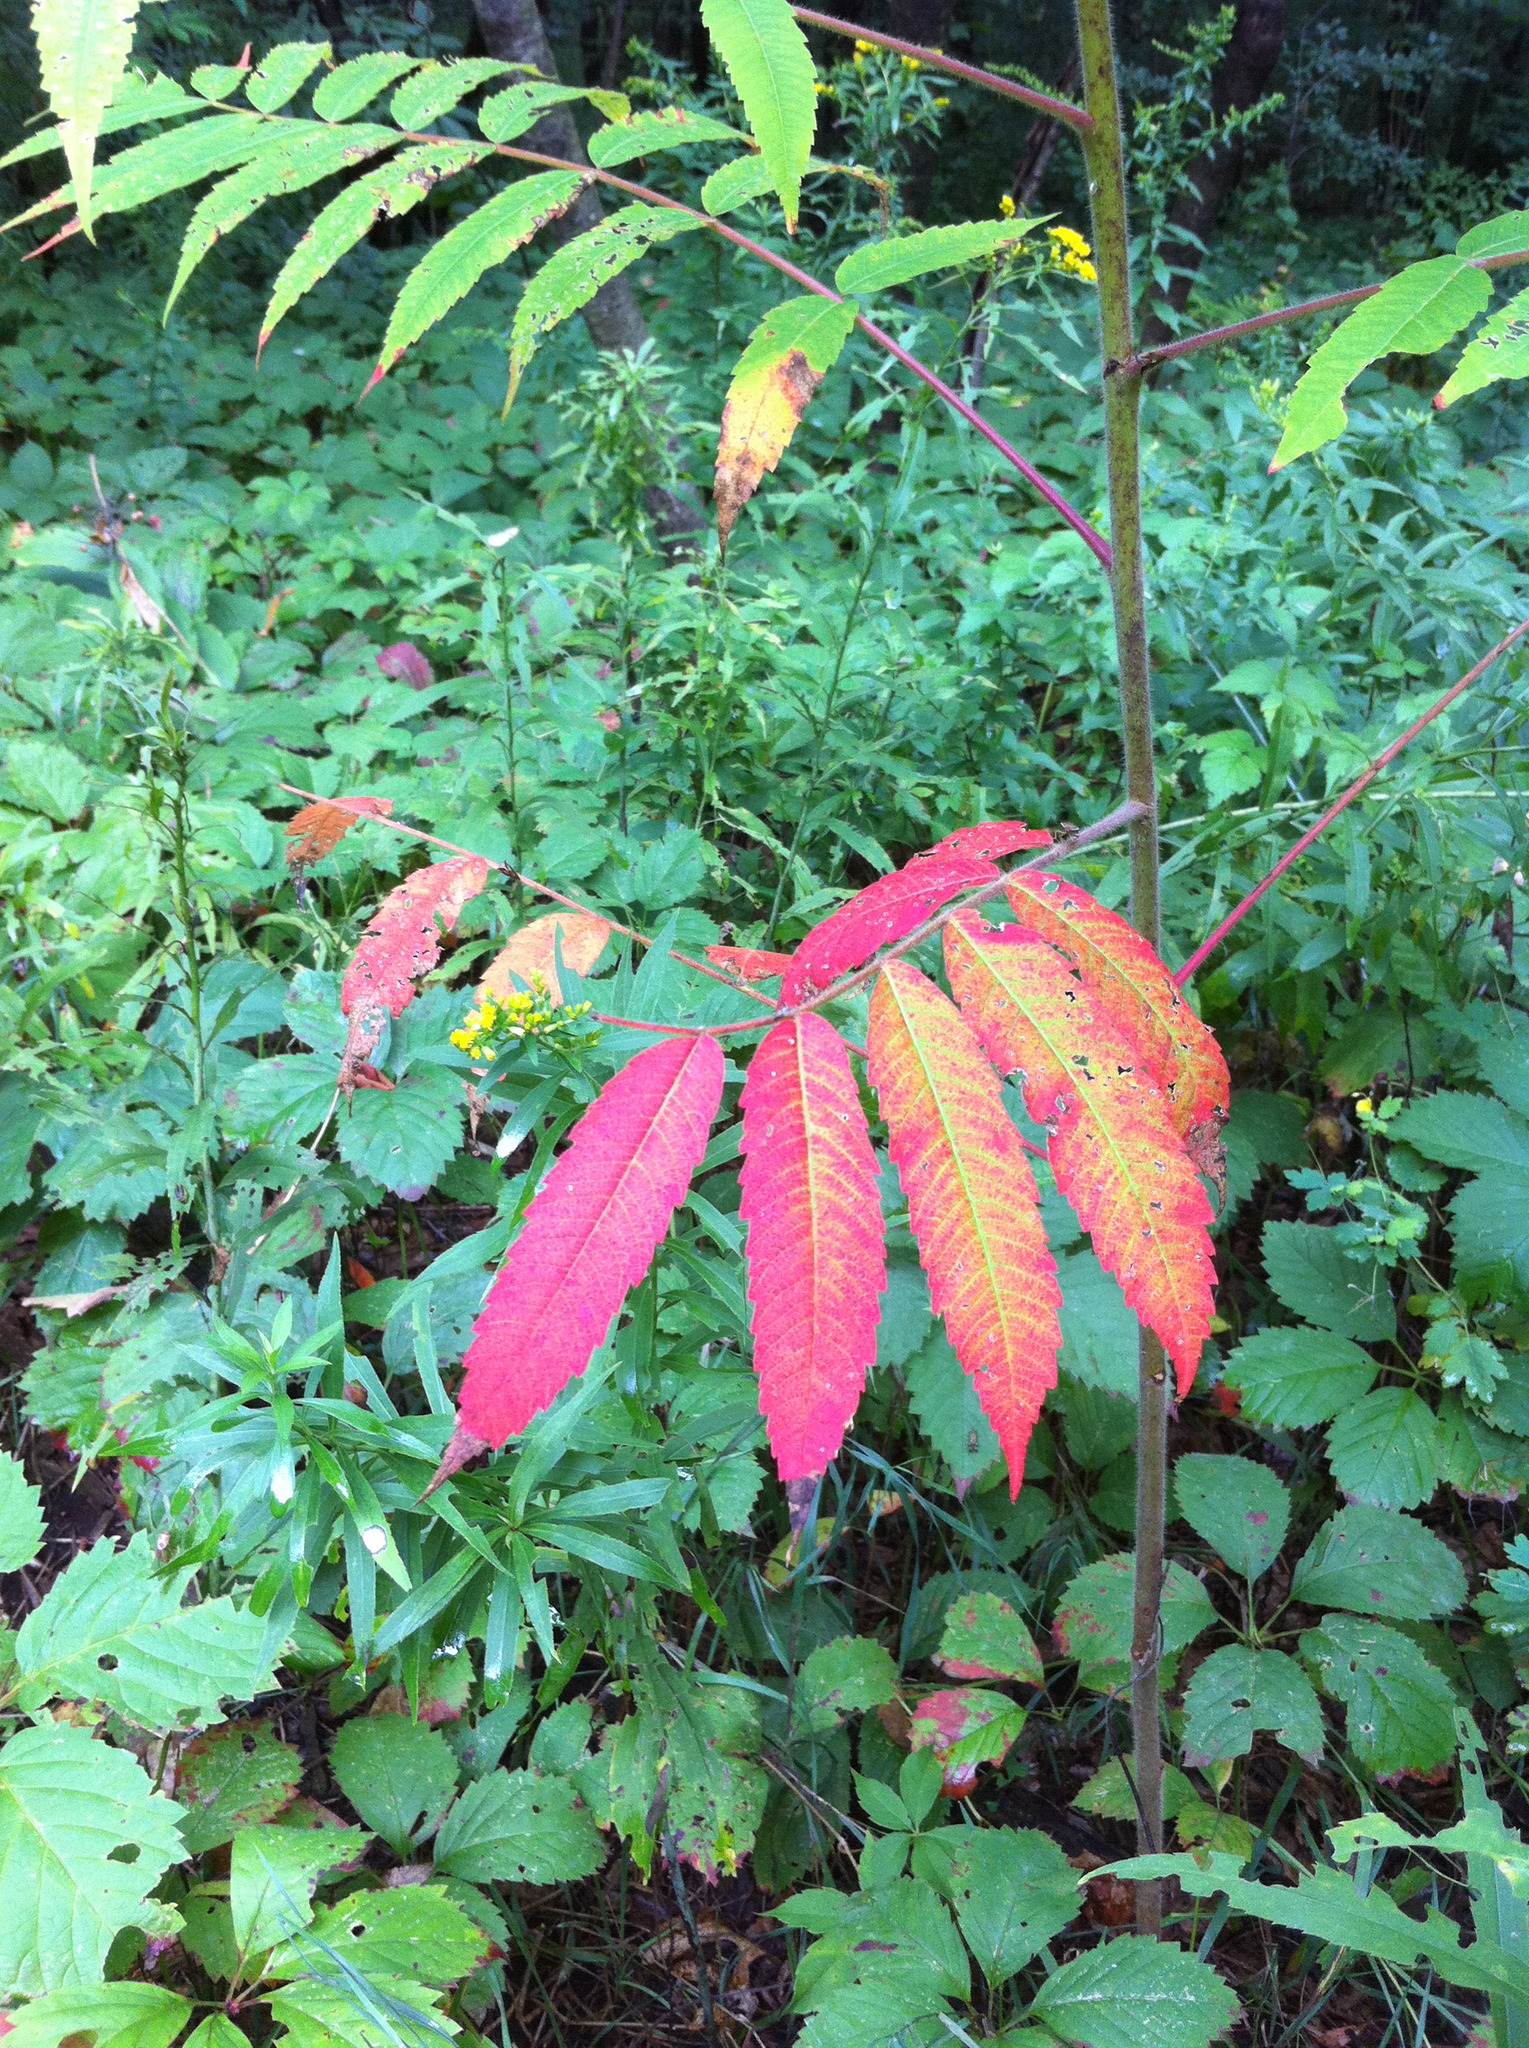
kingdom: Plantae
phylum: Tracheophyta
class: Magnoliopsida
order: Sapindales
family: Anacardiaceae
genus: Rhus
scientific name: Rhus typhina
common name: Staghorn sumac
